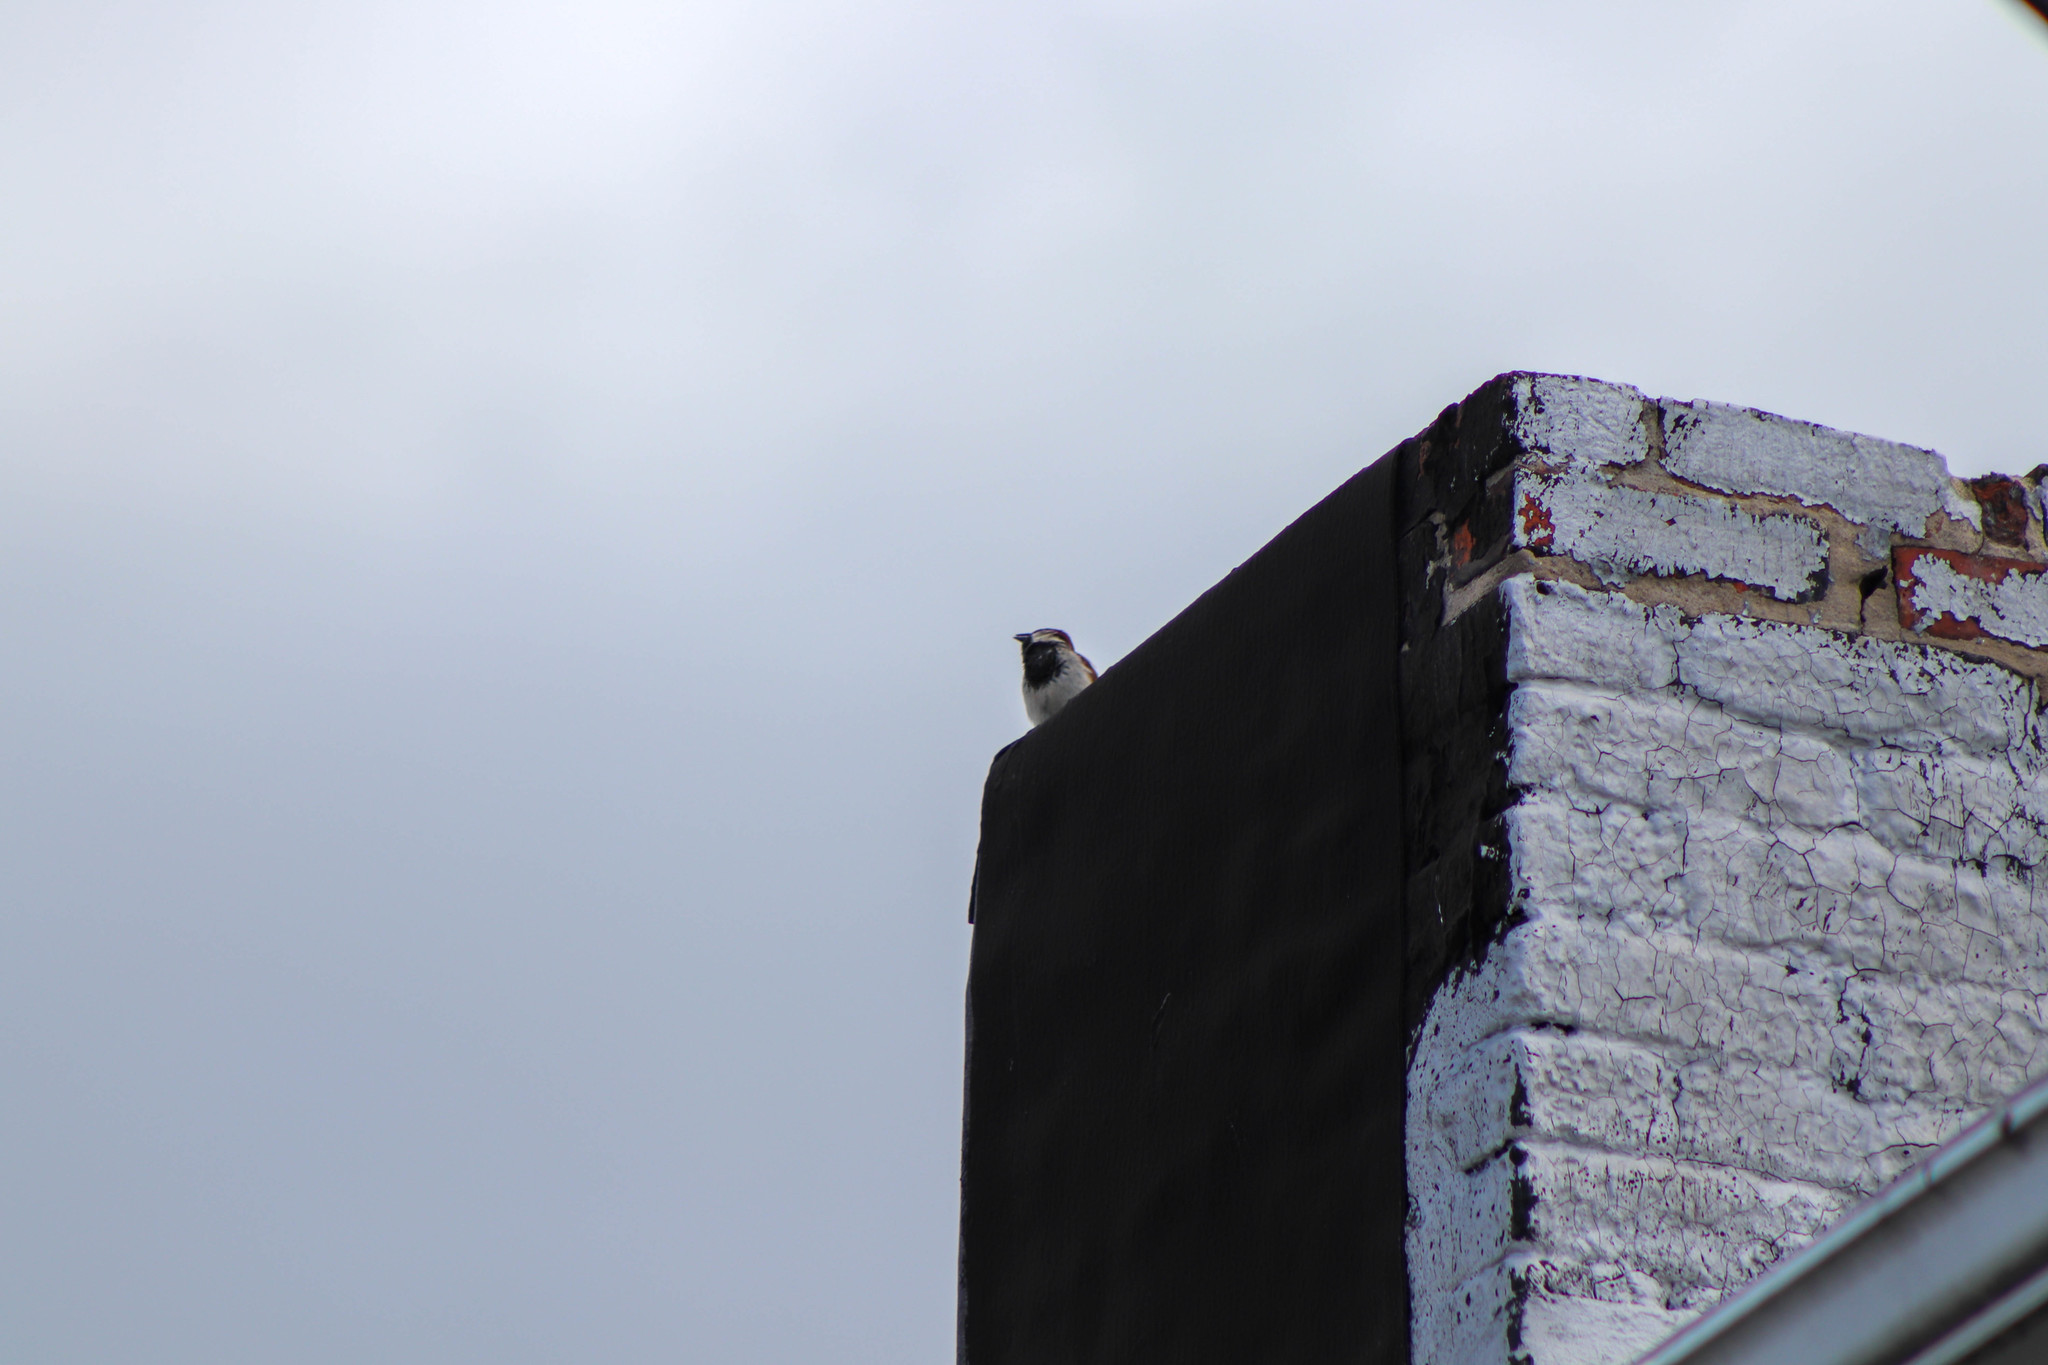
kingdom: Animalia
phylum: Chordata
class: Aves
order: Passeriformes
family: Passeridae
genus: Passer
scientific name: Passer domesticus
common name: House sparrow
